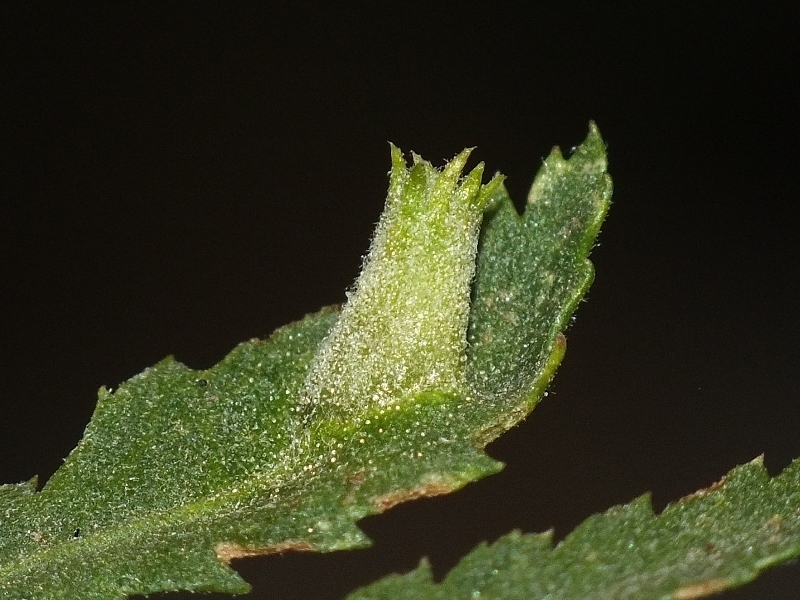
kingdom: Animalia
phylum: Arthropoda
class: Insecta
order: Diptera
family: Cecidomyiidae
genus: Rhopalomyia
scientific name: Rhopalomyia tanaceticolus
